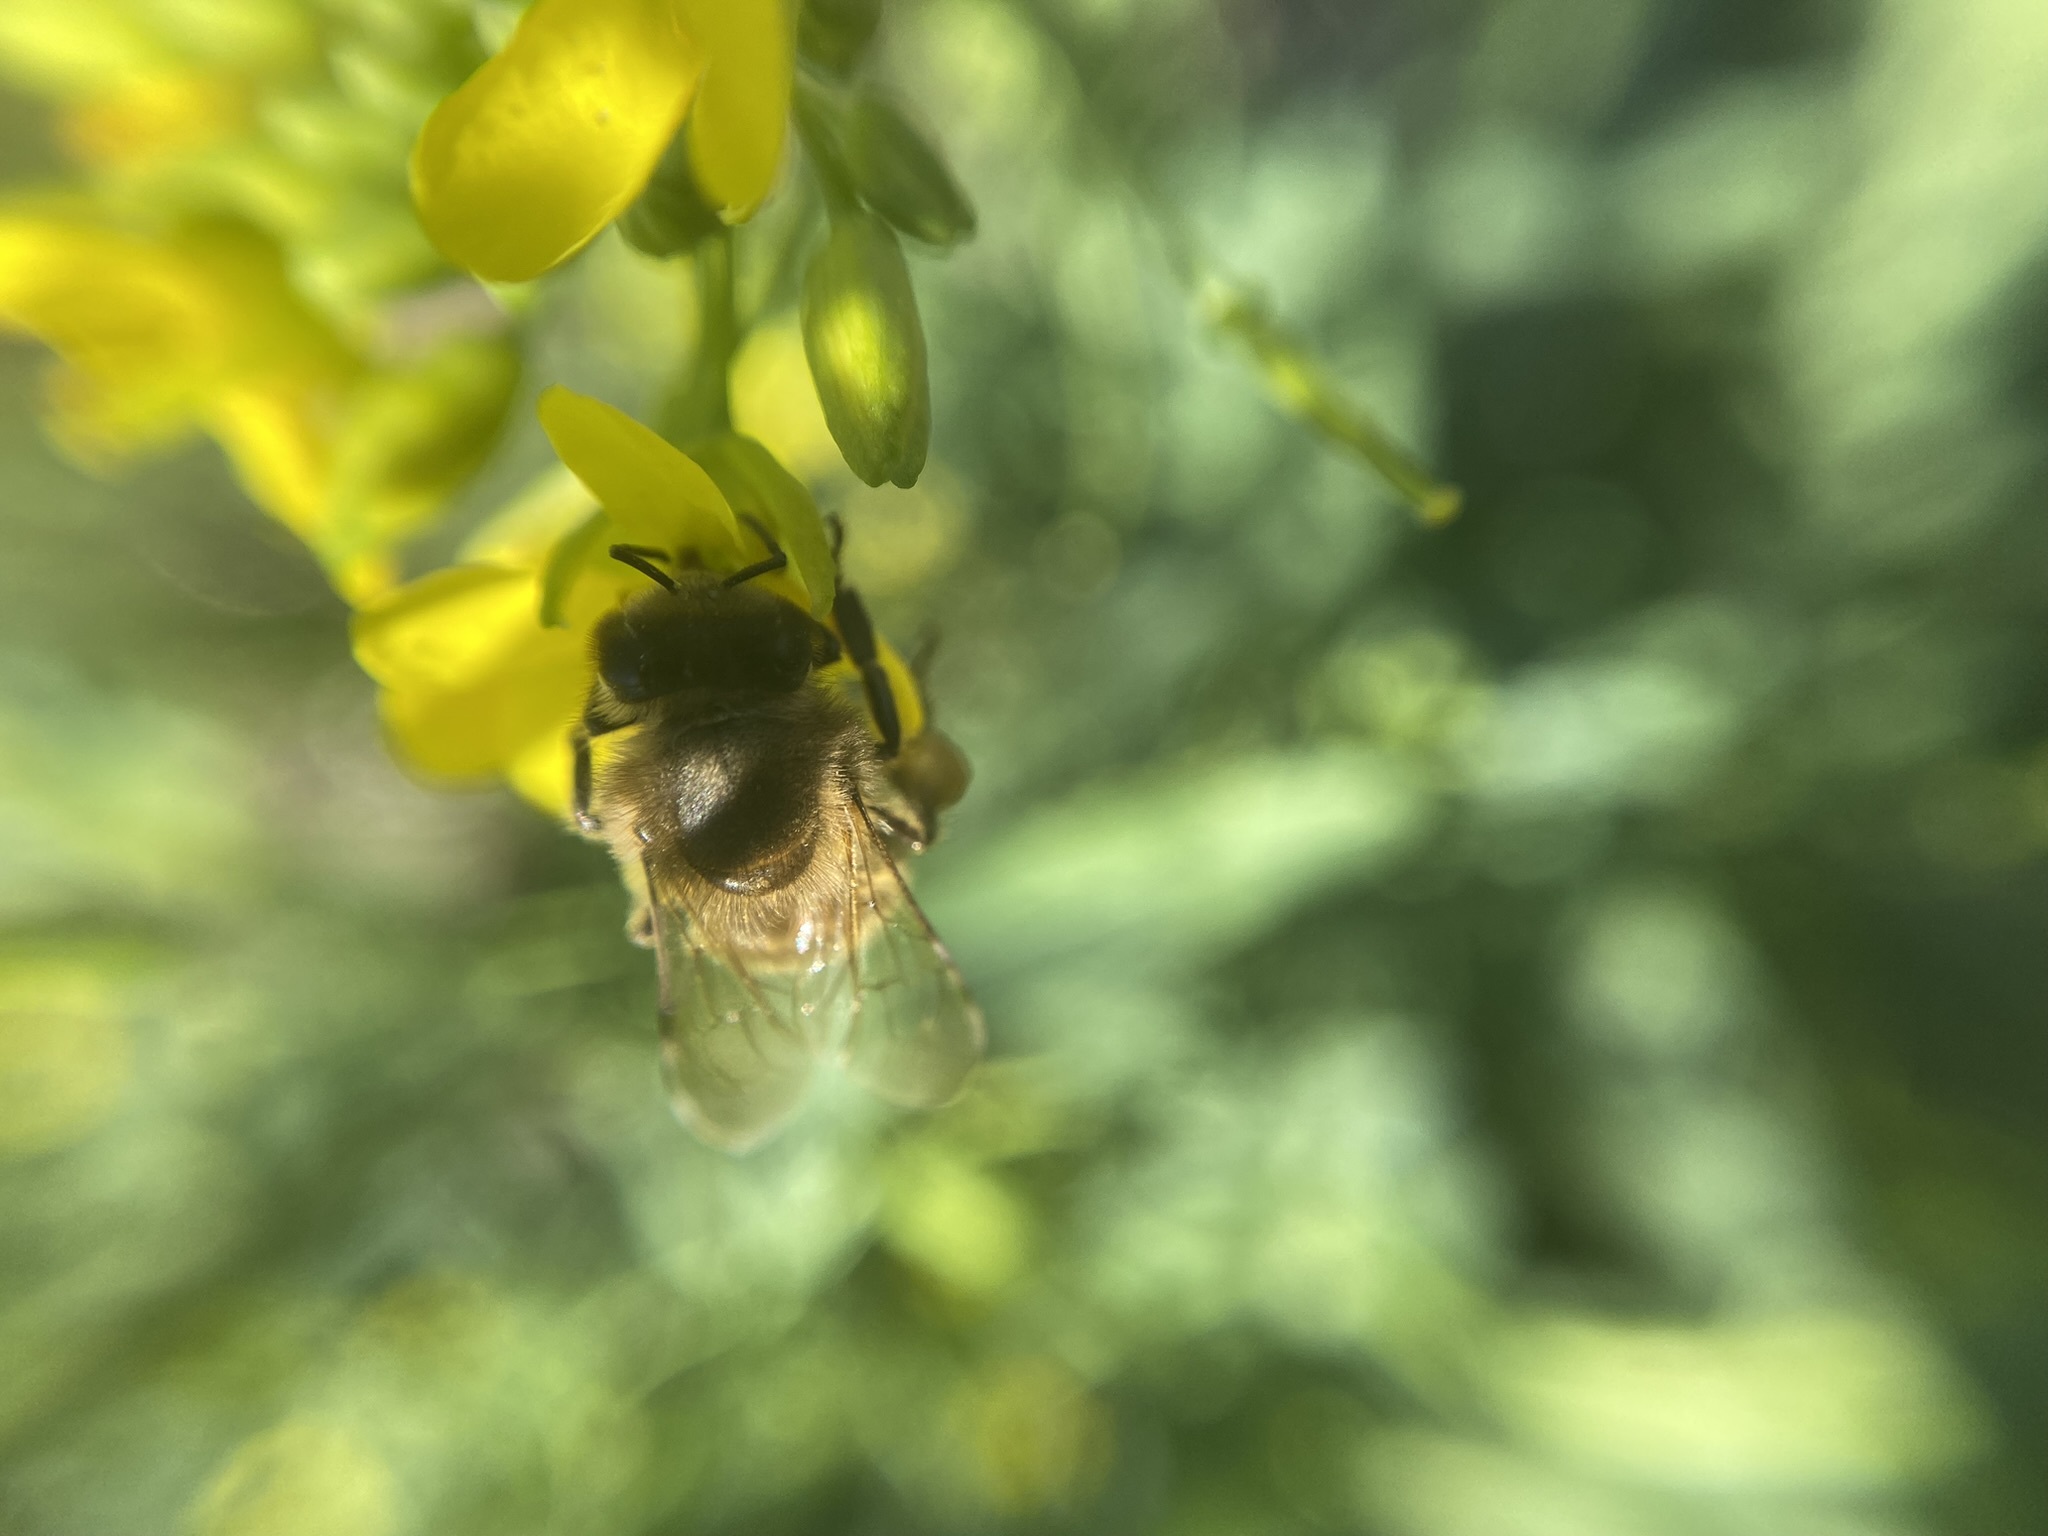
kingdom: Animalia
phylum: Arthropoda
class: Insecta
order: Hymenoptera
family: Apidae
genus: Apis
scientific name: Apis mellifera
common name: Honey bee
